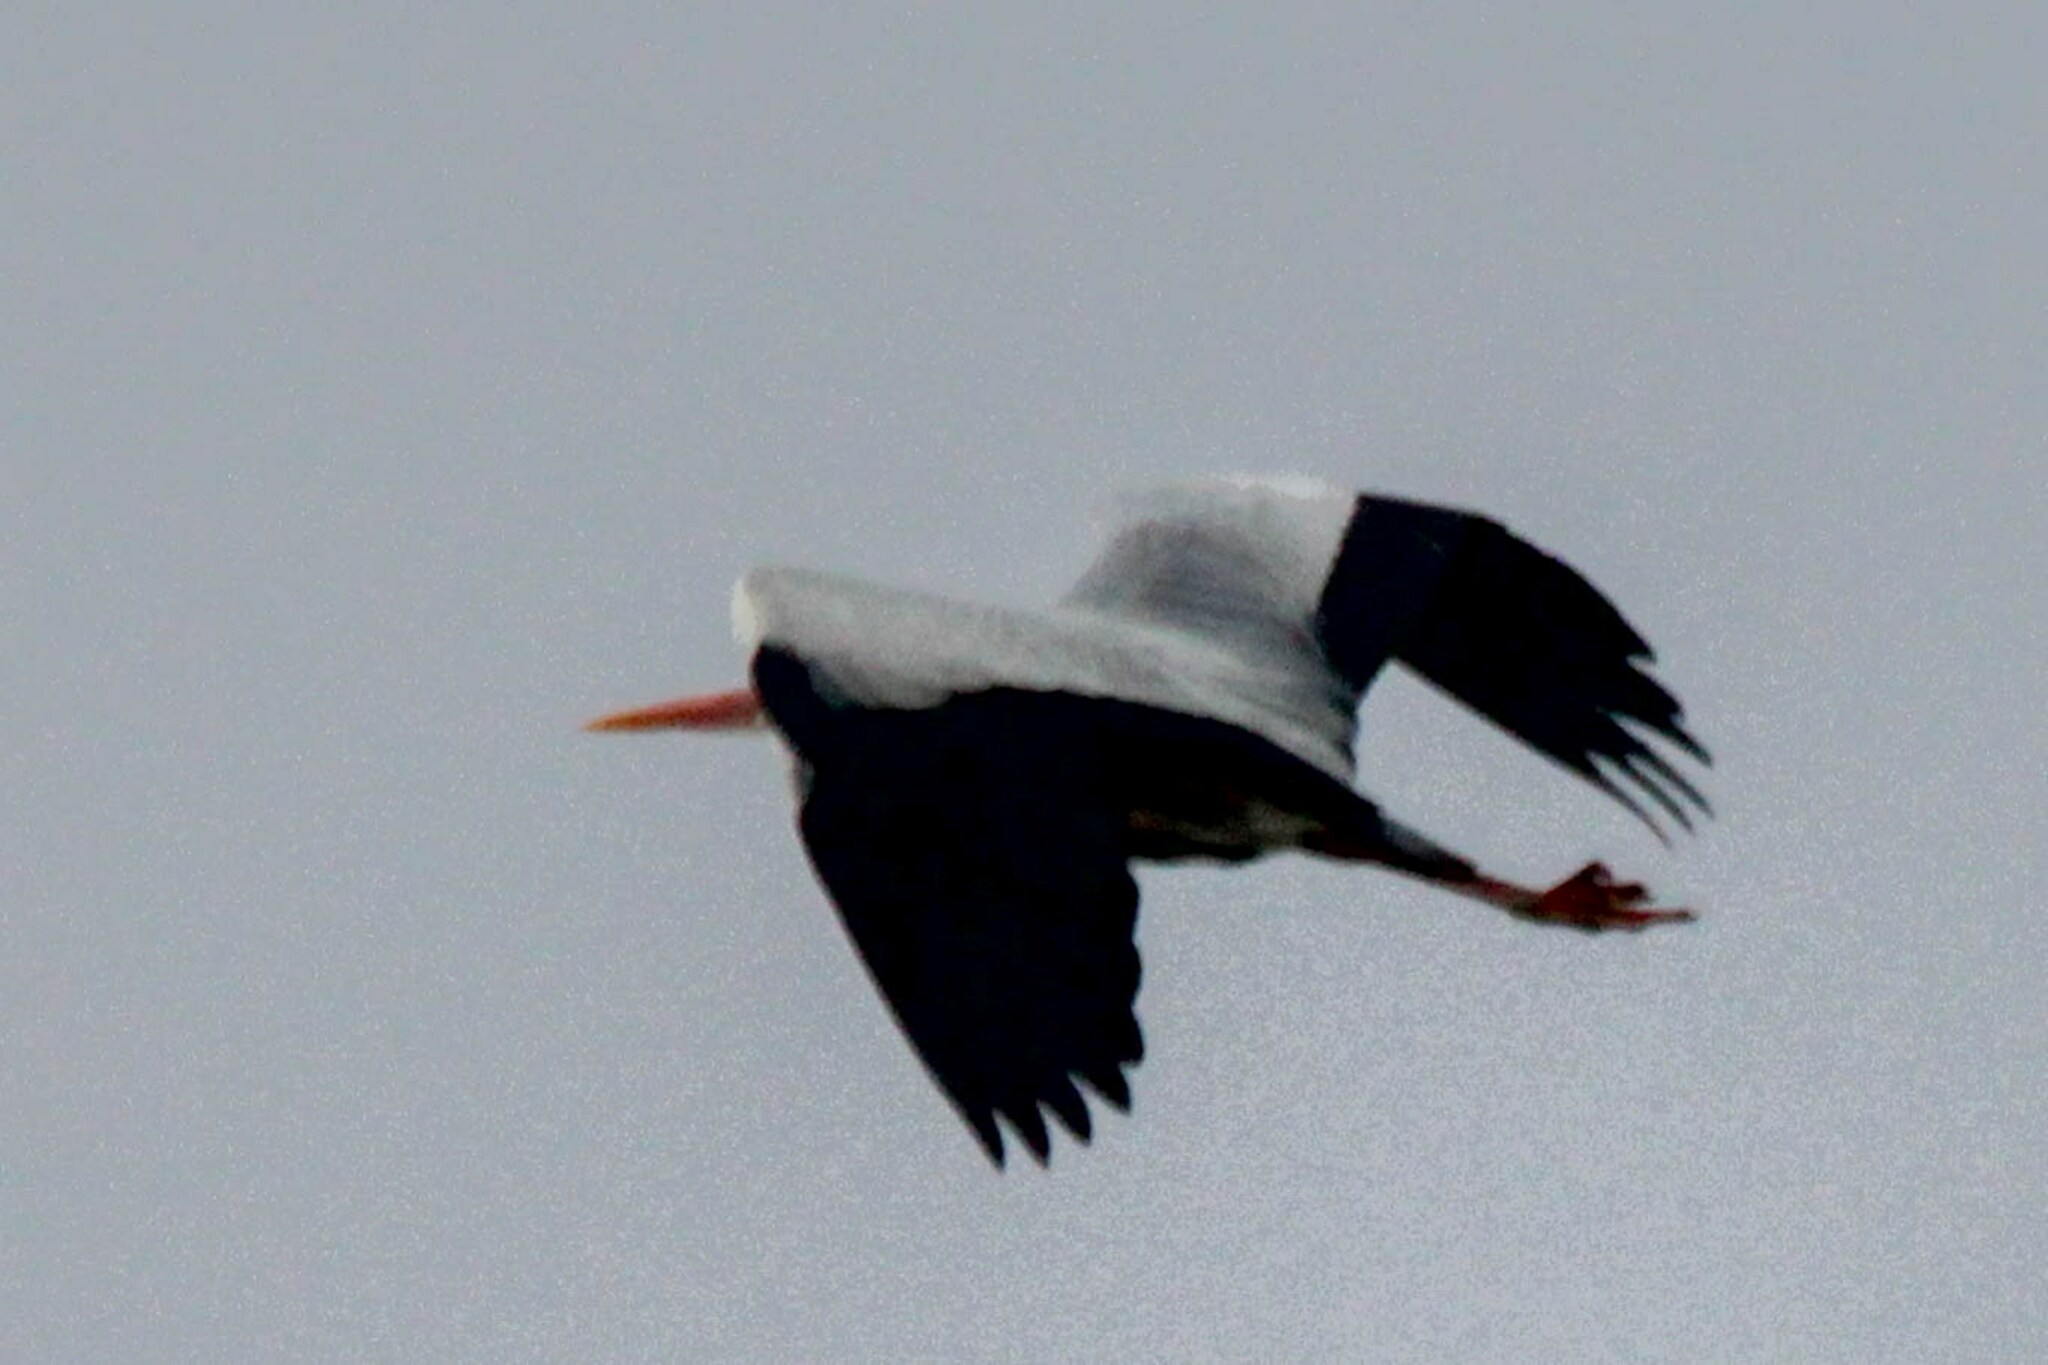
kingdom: Animalia
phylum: Chordata
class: Aves
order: Pelecaniformes
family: Ardeidae
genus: Ardea
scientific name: Ardea cinerea
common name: Grey heron
